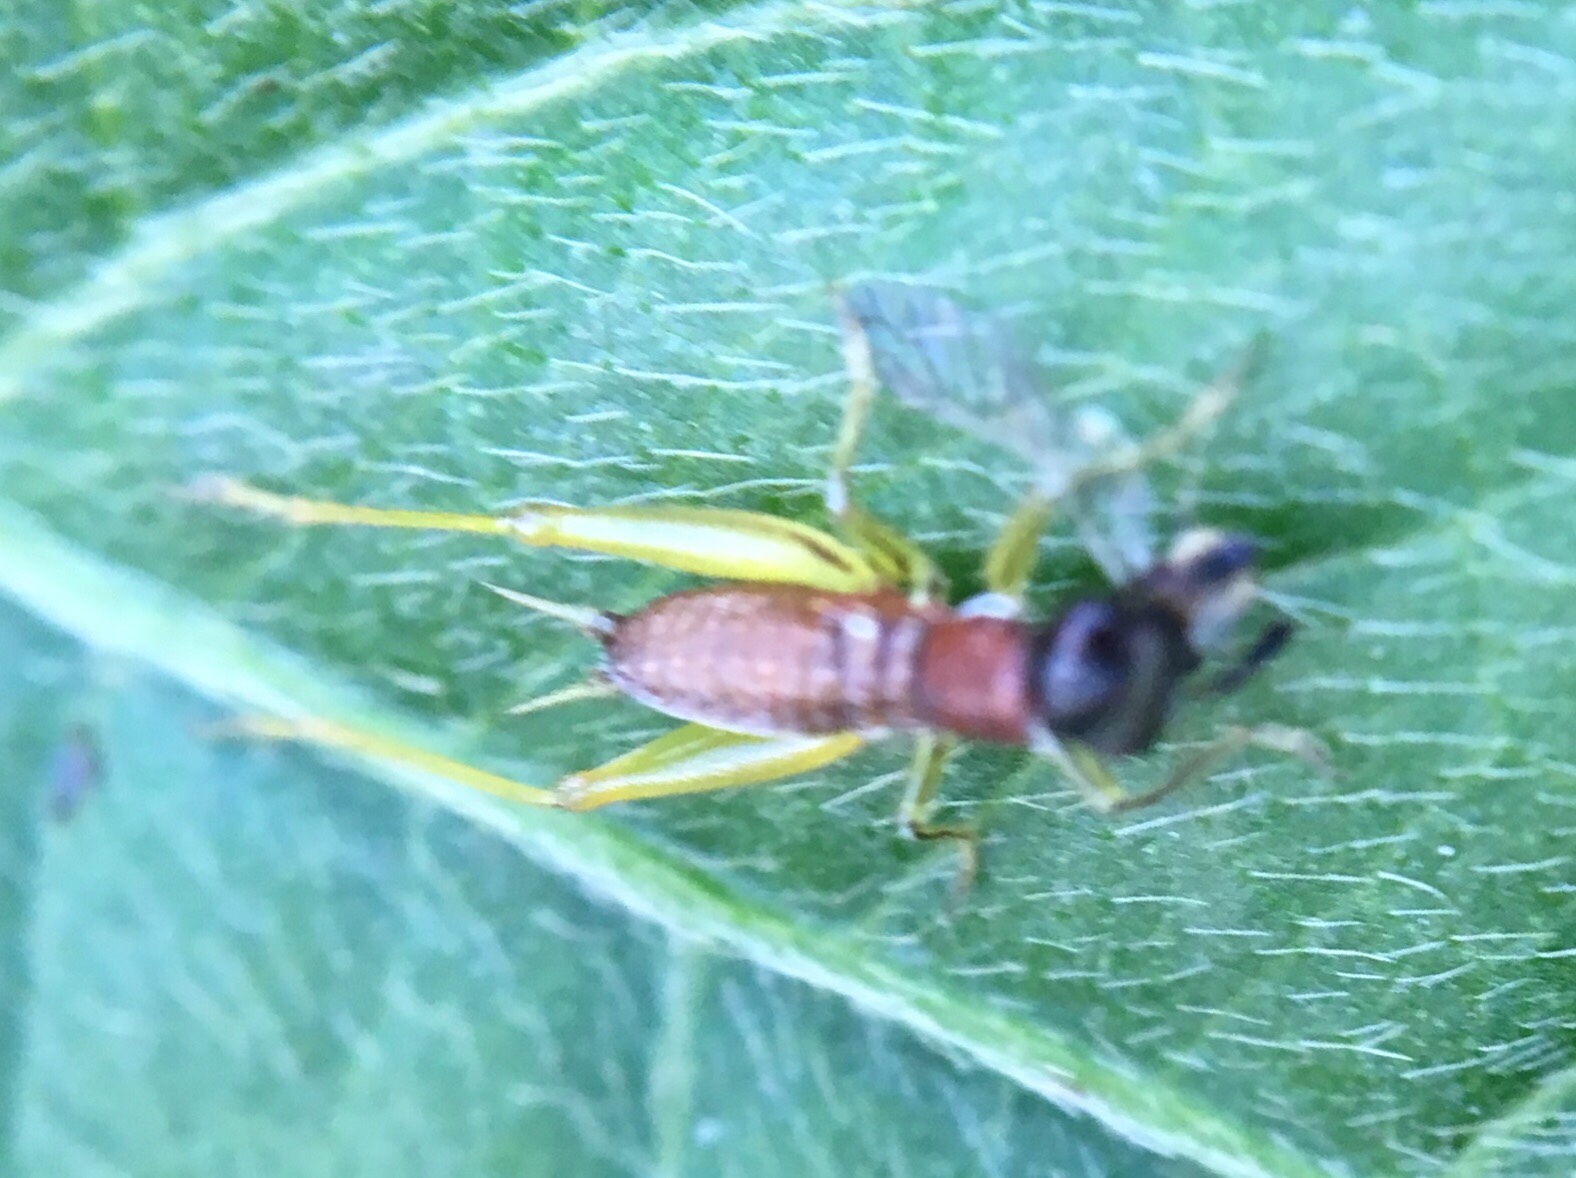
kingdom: Animalia
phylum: Arthropoda
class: Insecta
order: Orthoptera
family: Trigonidiidae
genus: Phyllopalpus
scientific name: Phyllopalpus pulchellus
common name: Handsome trig
